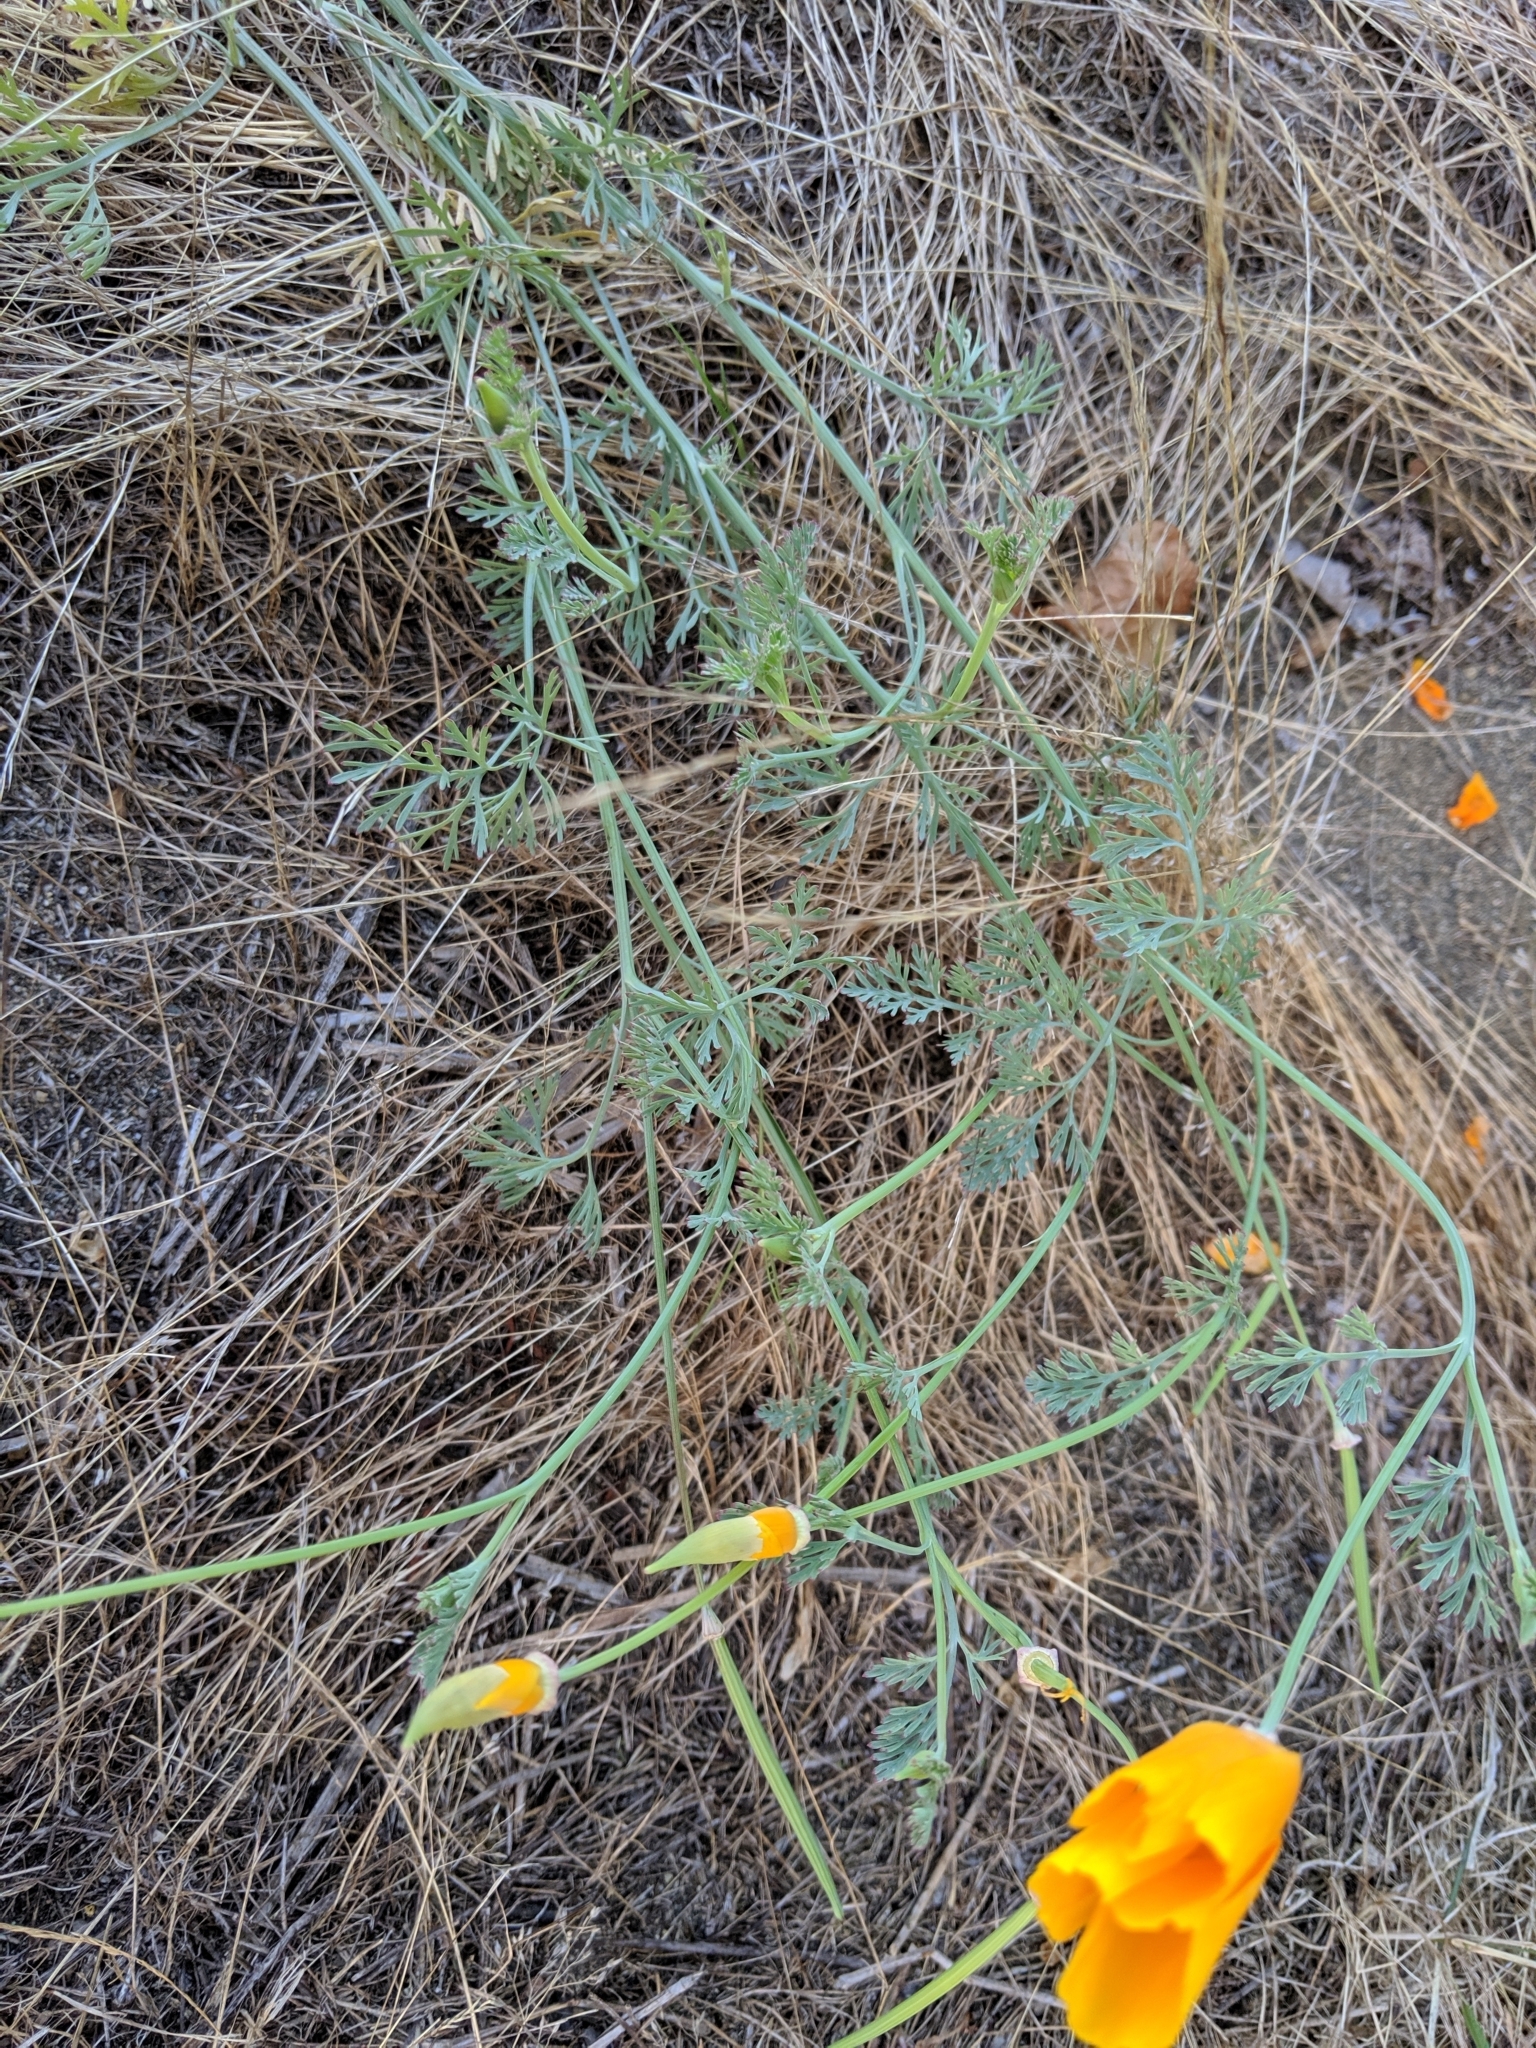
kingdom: Plantae
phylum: Tracheophyta
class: Magnoliopsida
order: Ranunculales
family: Papaveraceae
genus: Eschscholzia
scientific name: Eschscholzia californica
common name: California poppy
